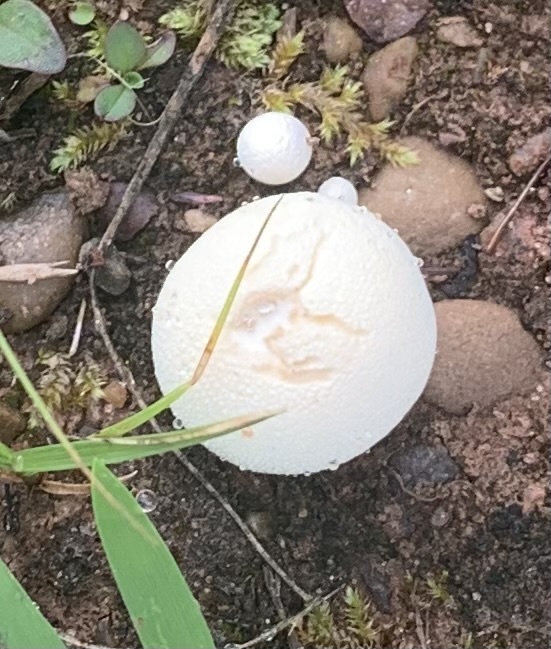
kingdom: Fungi
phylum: Basidiomycota
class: Agaricomycetes
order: Agaricales
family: Lycoperdaceae
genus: Lycoperdon
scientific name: Lycoperdon pratense
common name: Meadow puffball
